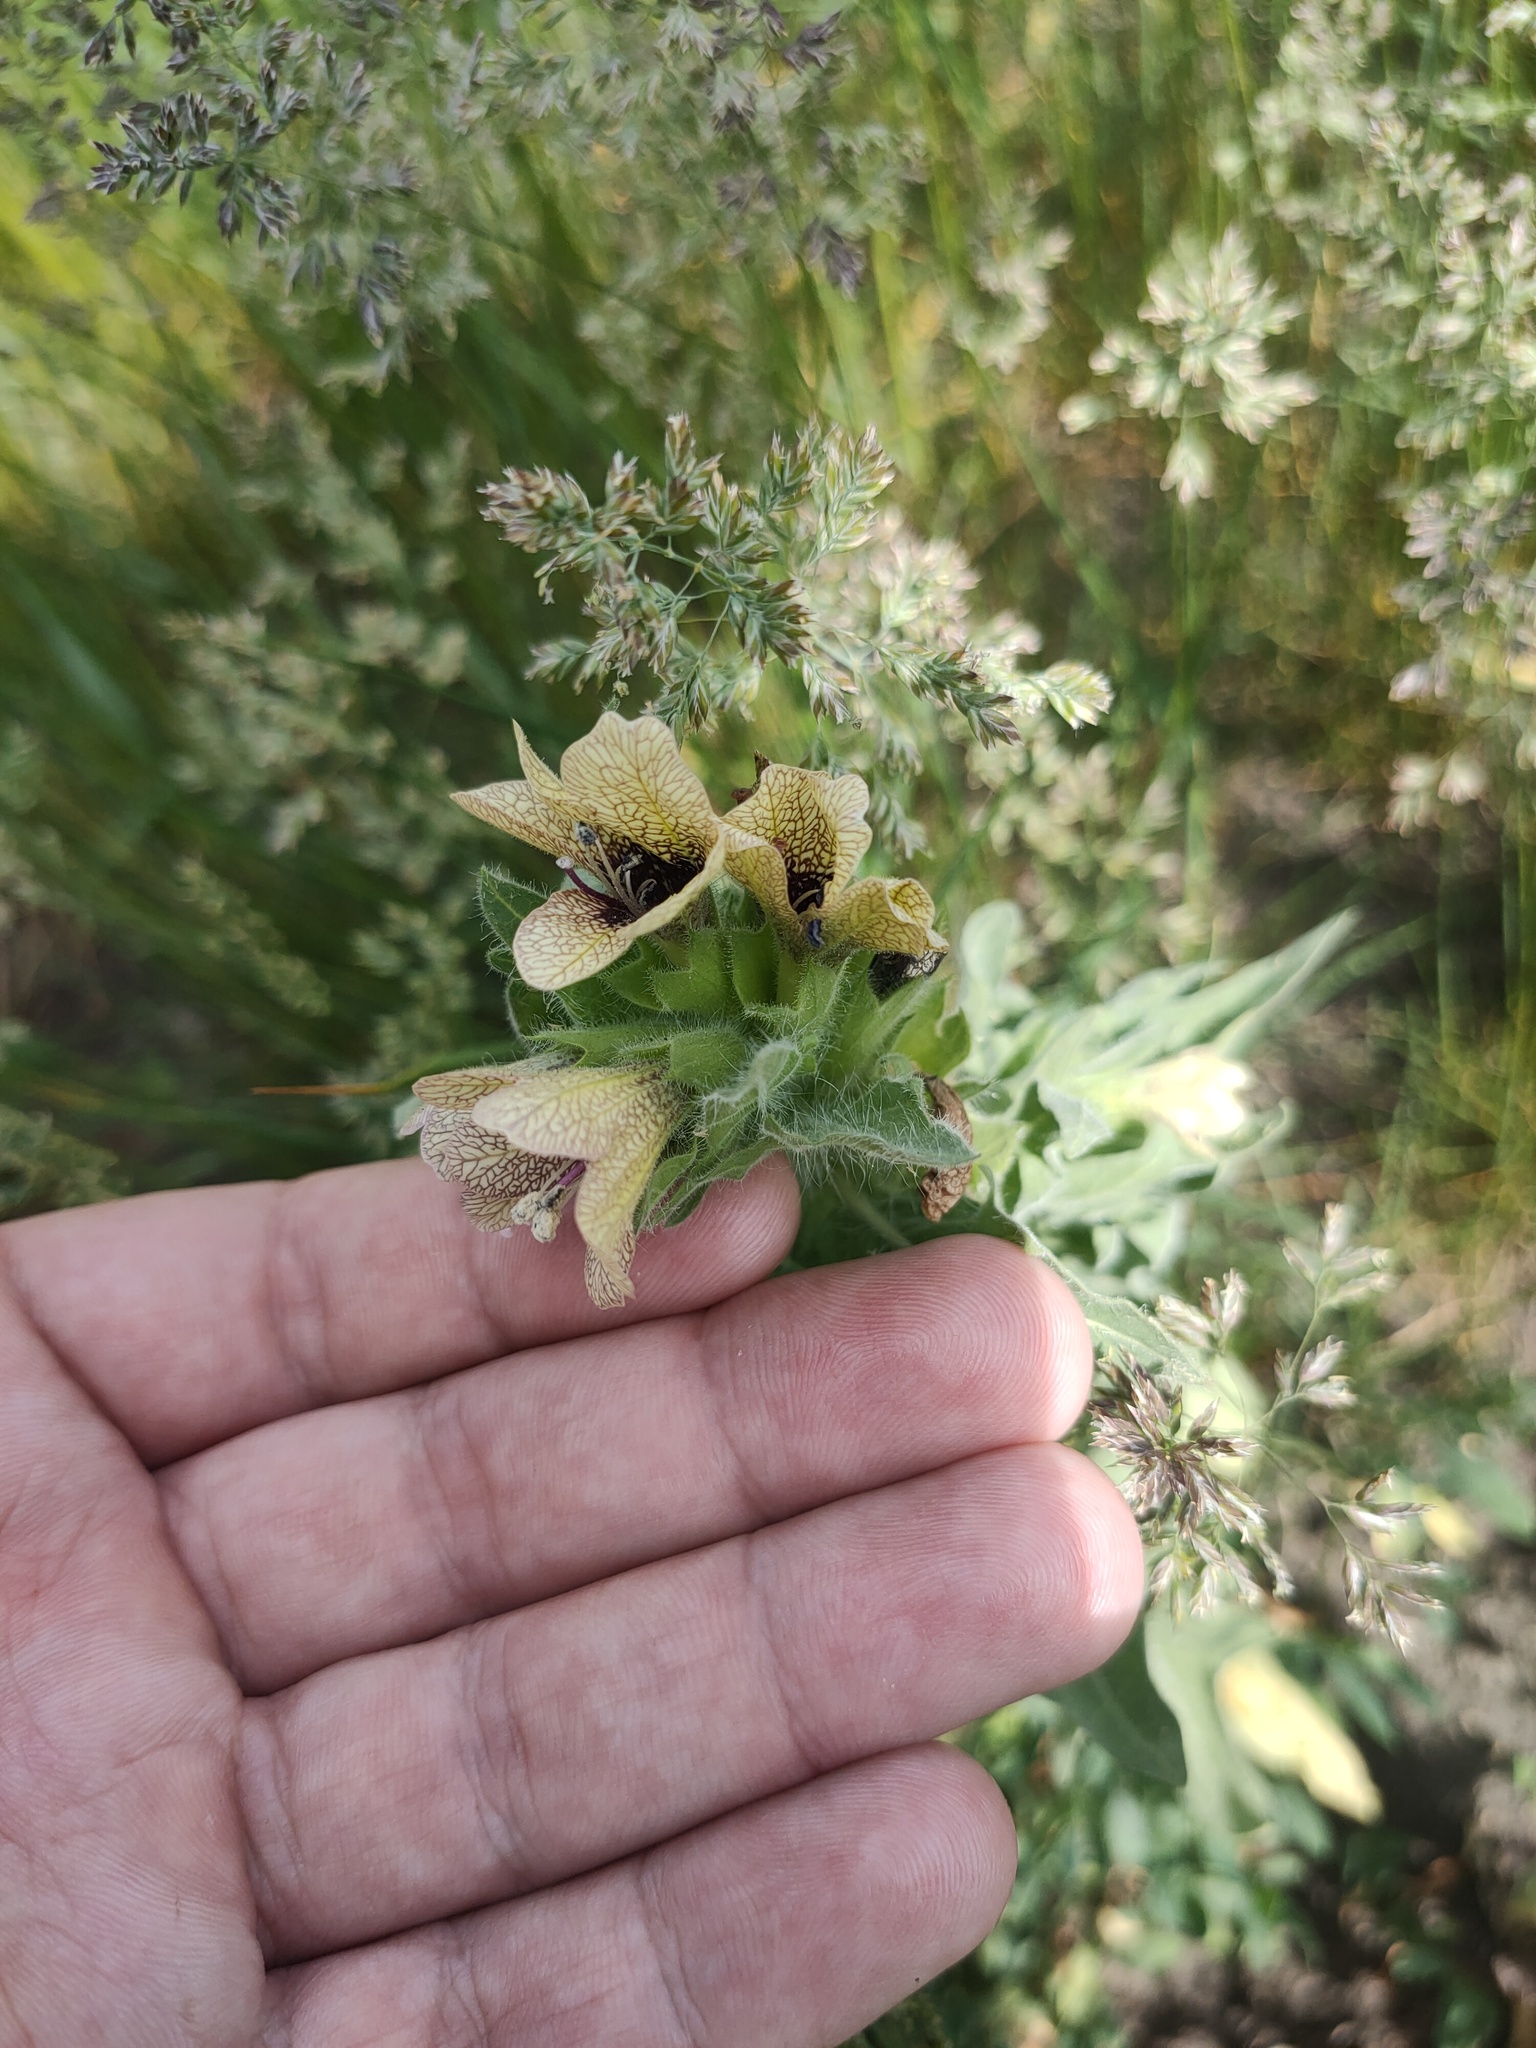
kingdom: Plantae
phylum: Tracheophyta
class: Magnoliopsida
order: Solanales
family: Solanaceae
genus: Hyoscyamus
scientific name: Hyoscyamus niger
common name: Henbane
